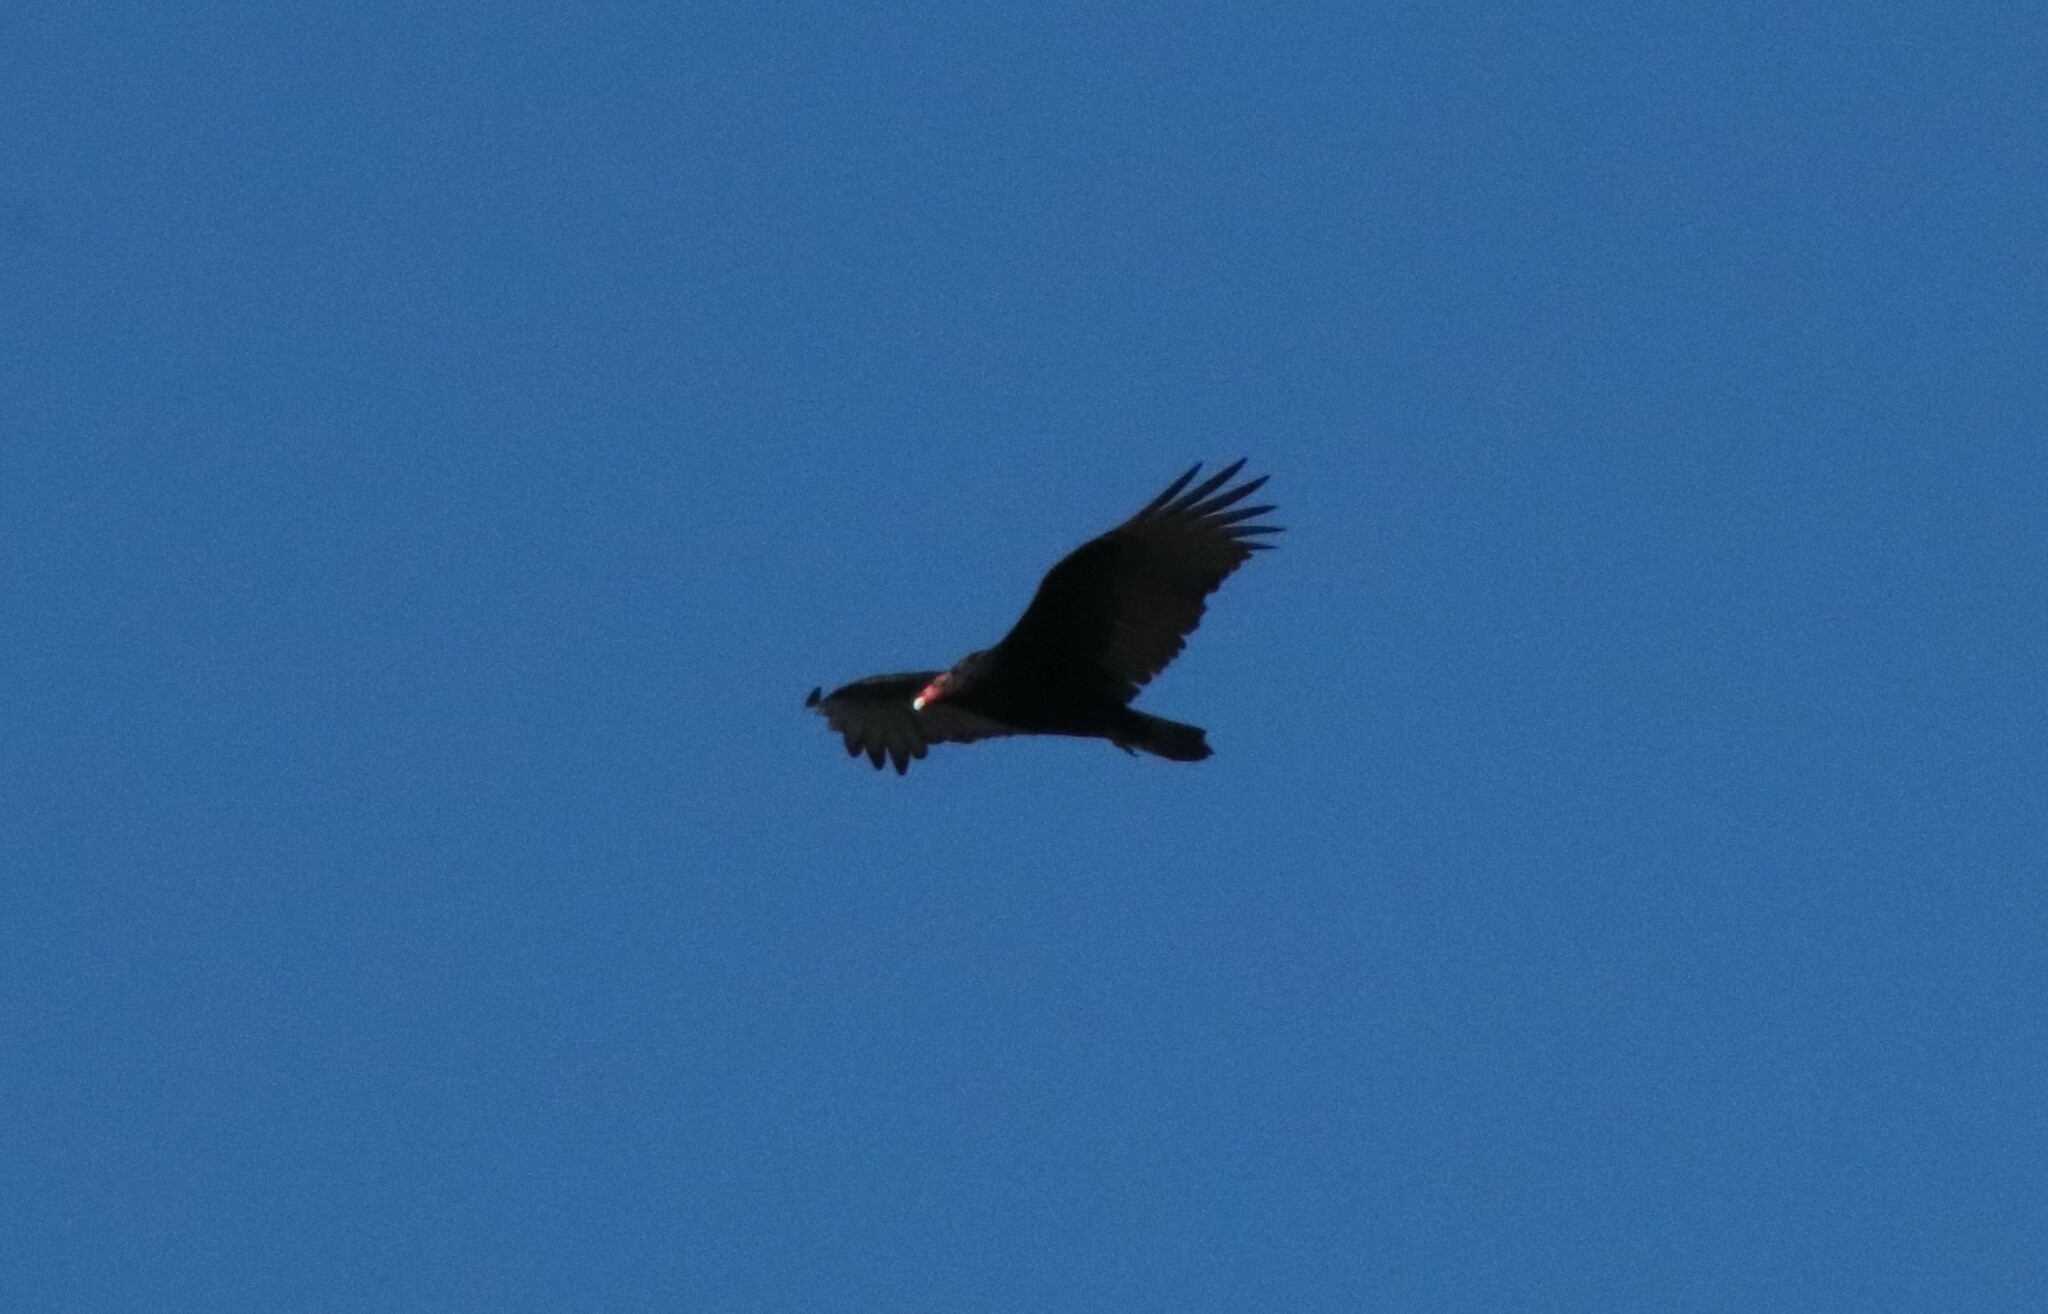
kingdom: Animalia
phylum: Chordata
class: Aves
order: Accipitriformes
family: Cathartidae
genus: Cathartes
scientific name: Cathartes aura
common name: Turkey vulture
